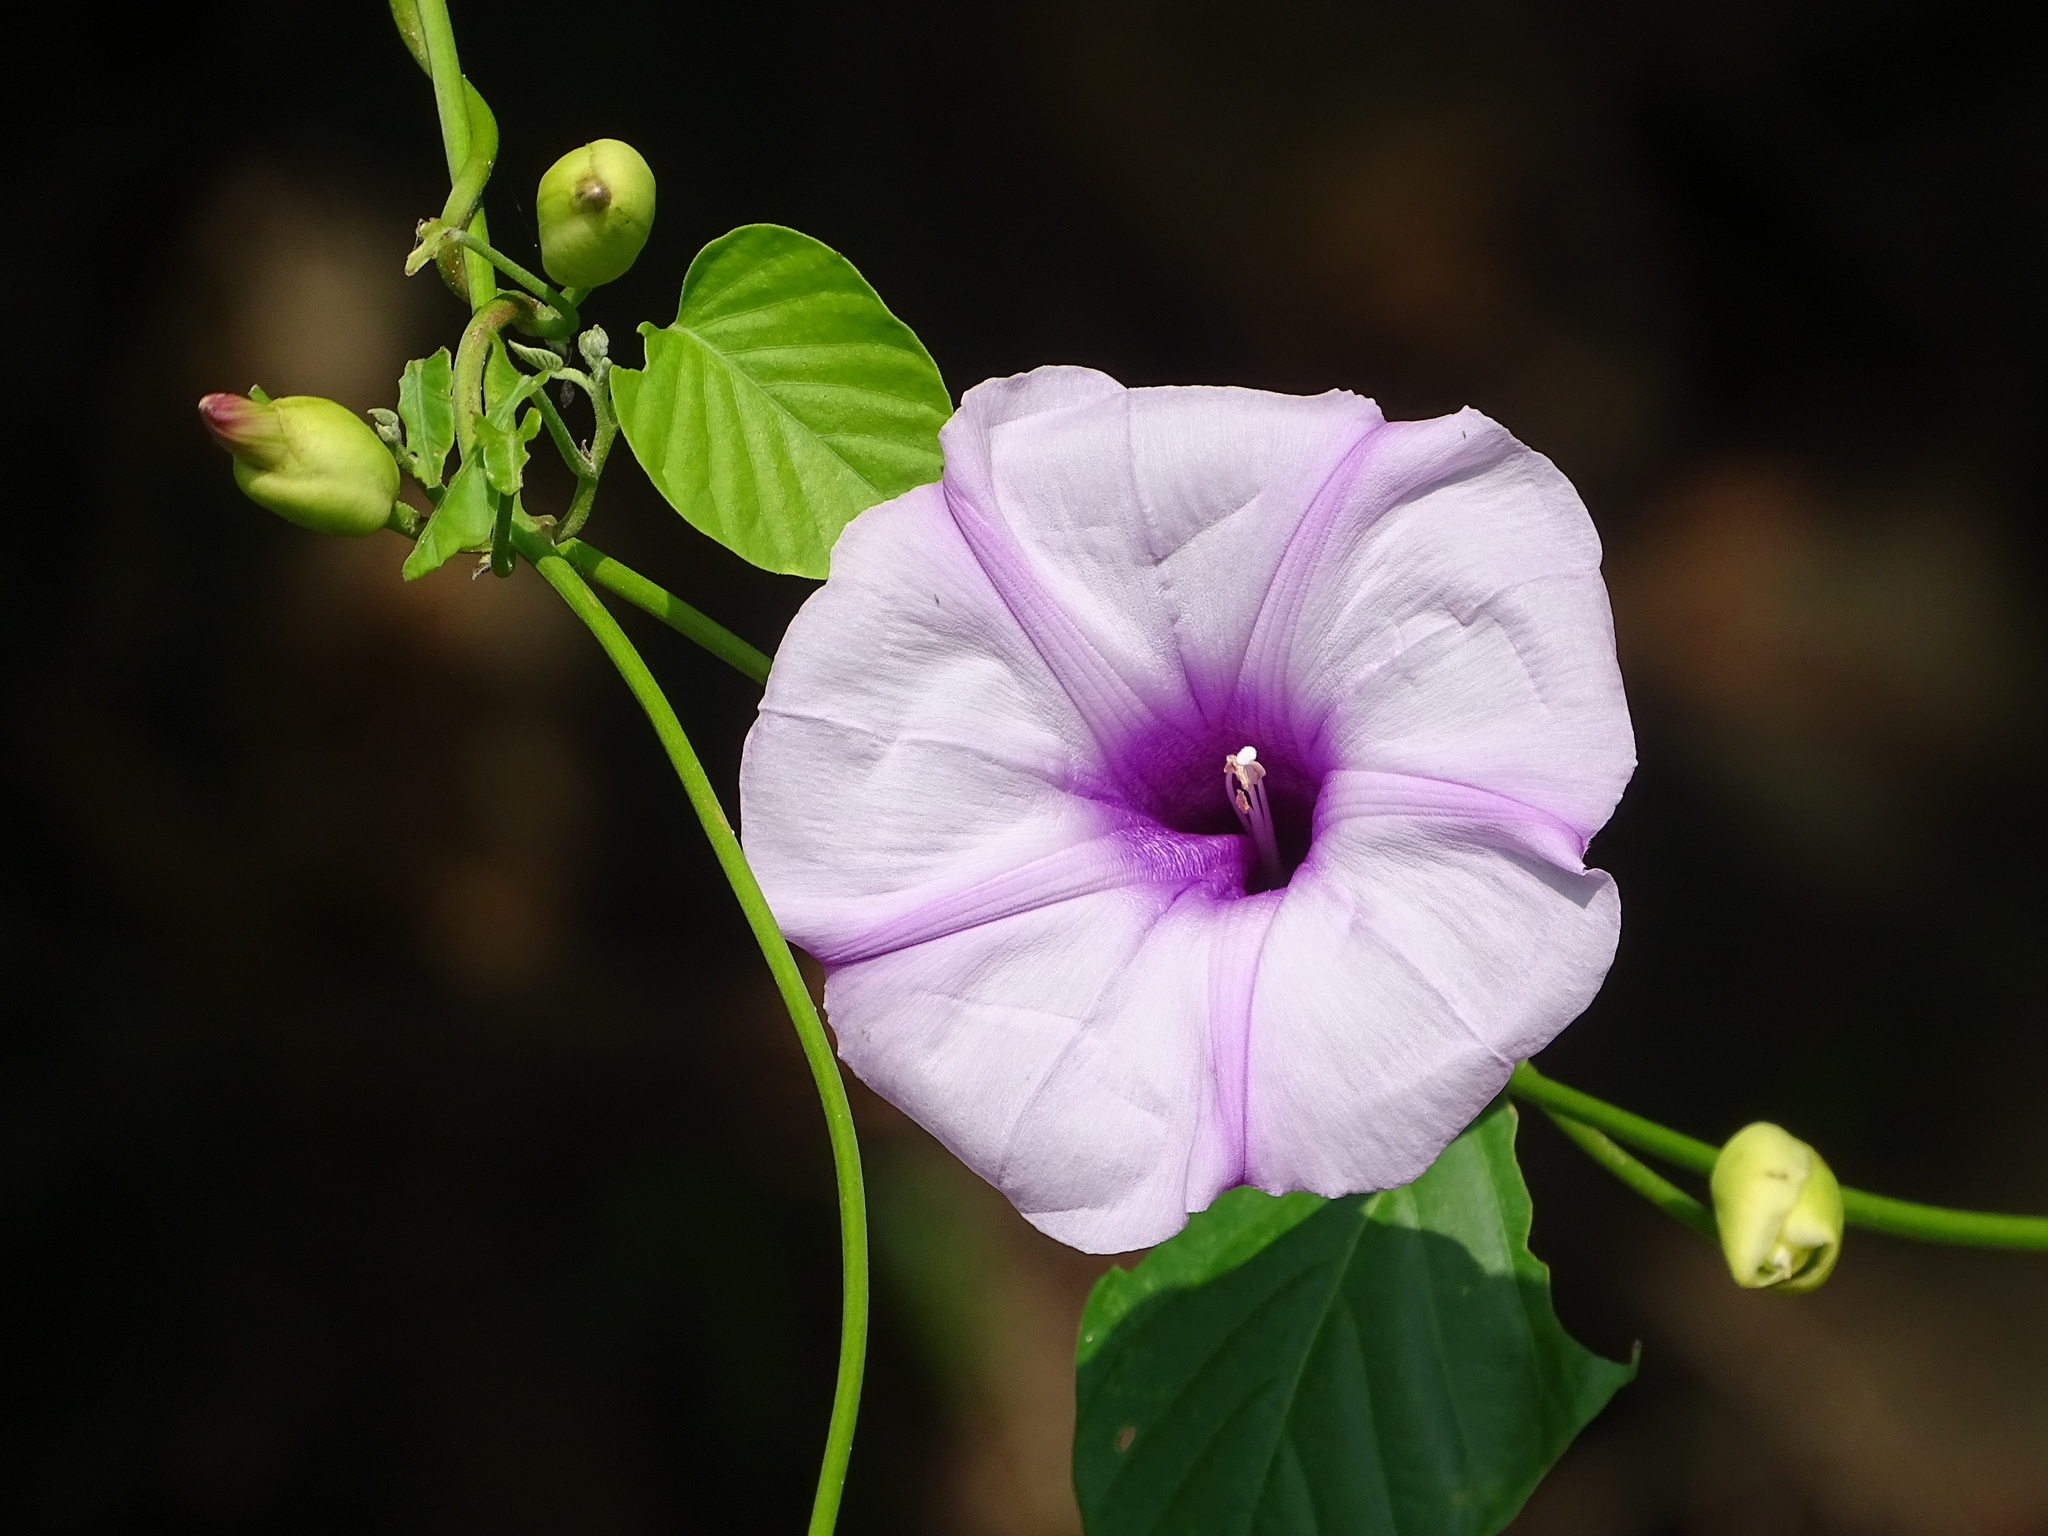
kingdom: Plantae
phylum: Tracheophyta
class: Magnoliopsida
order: Solanales
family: Convolvulaceae
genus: Stictocardia
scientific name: Stictocardia tiliifolia
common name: Spottedheart
